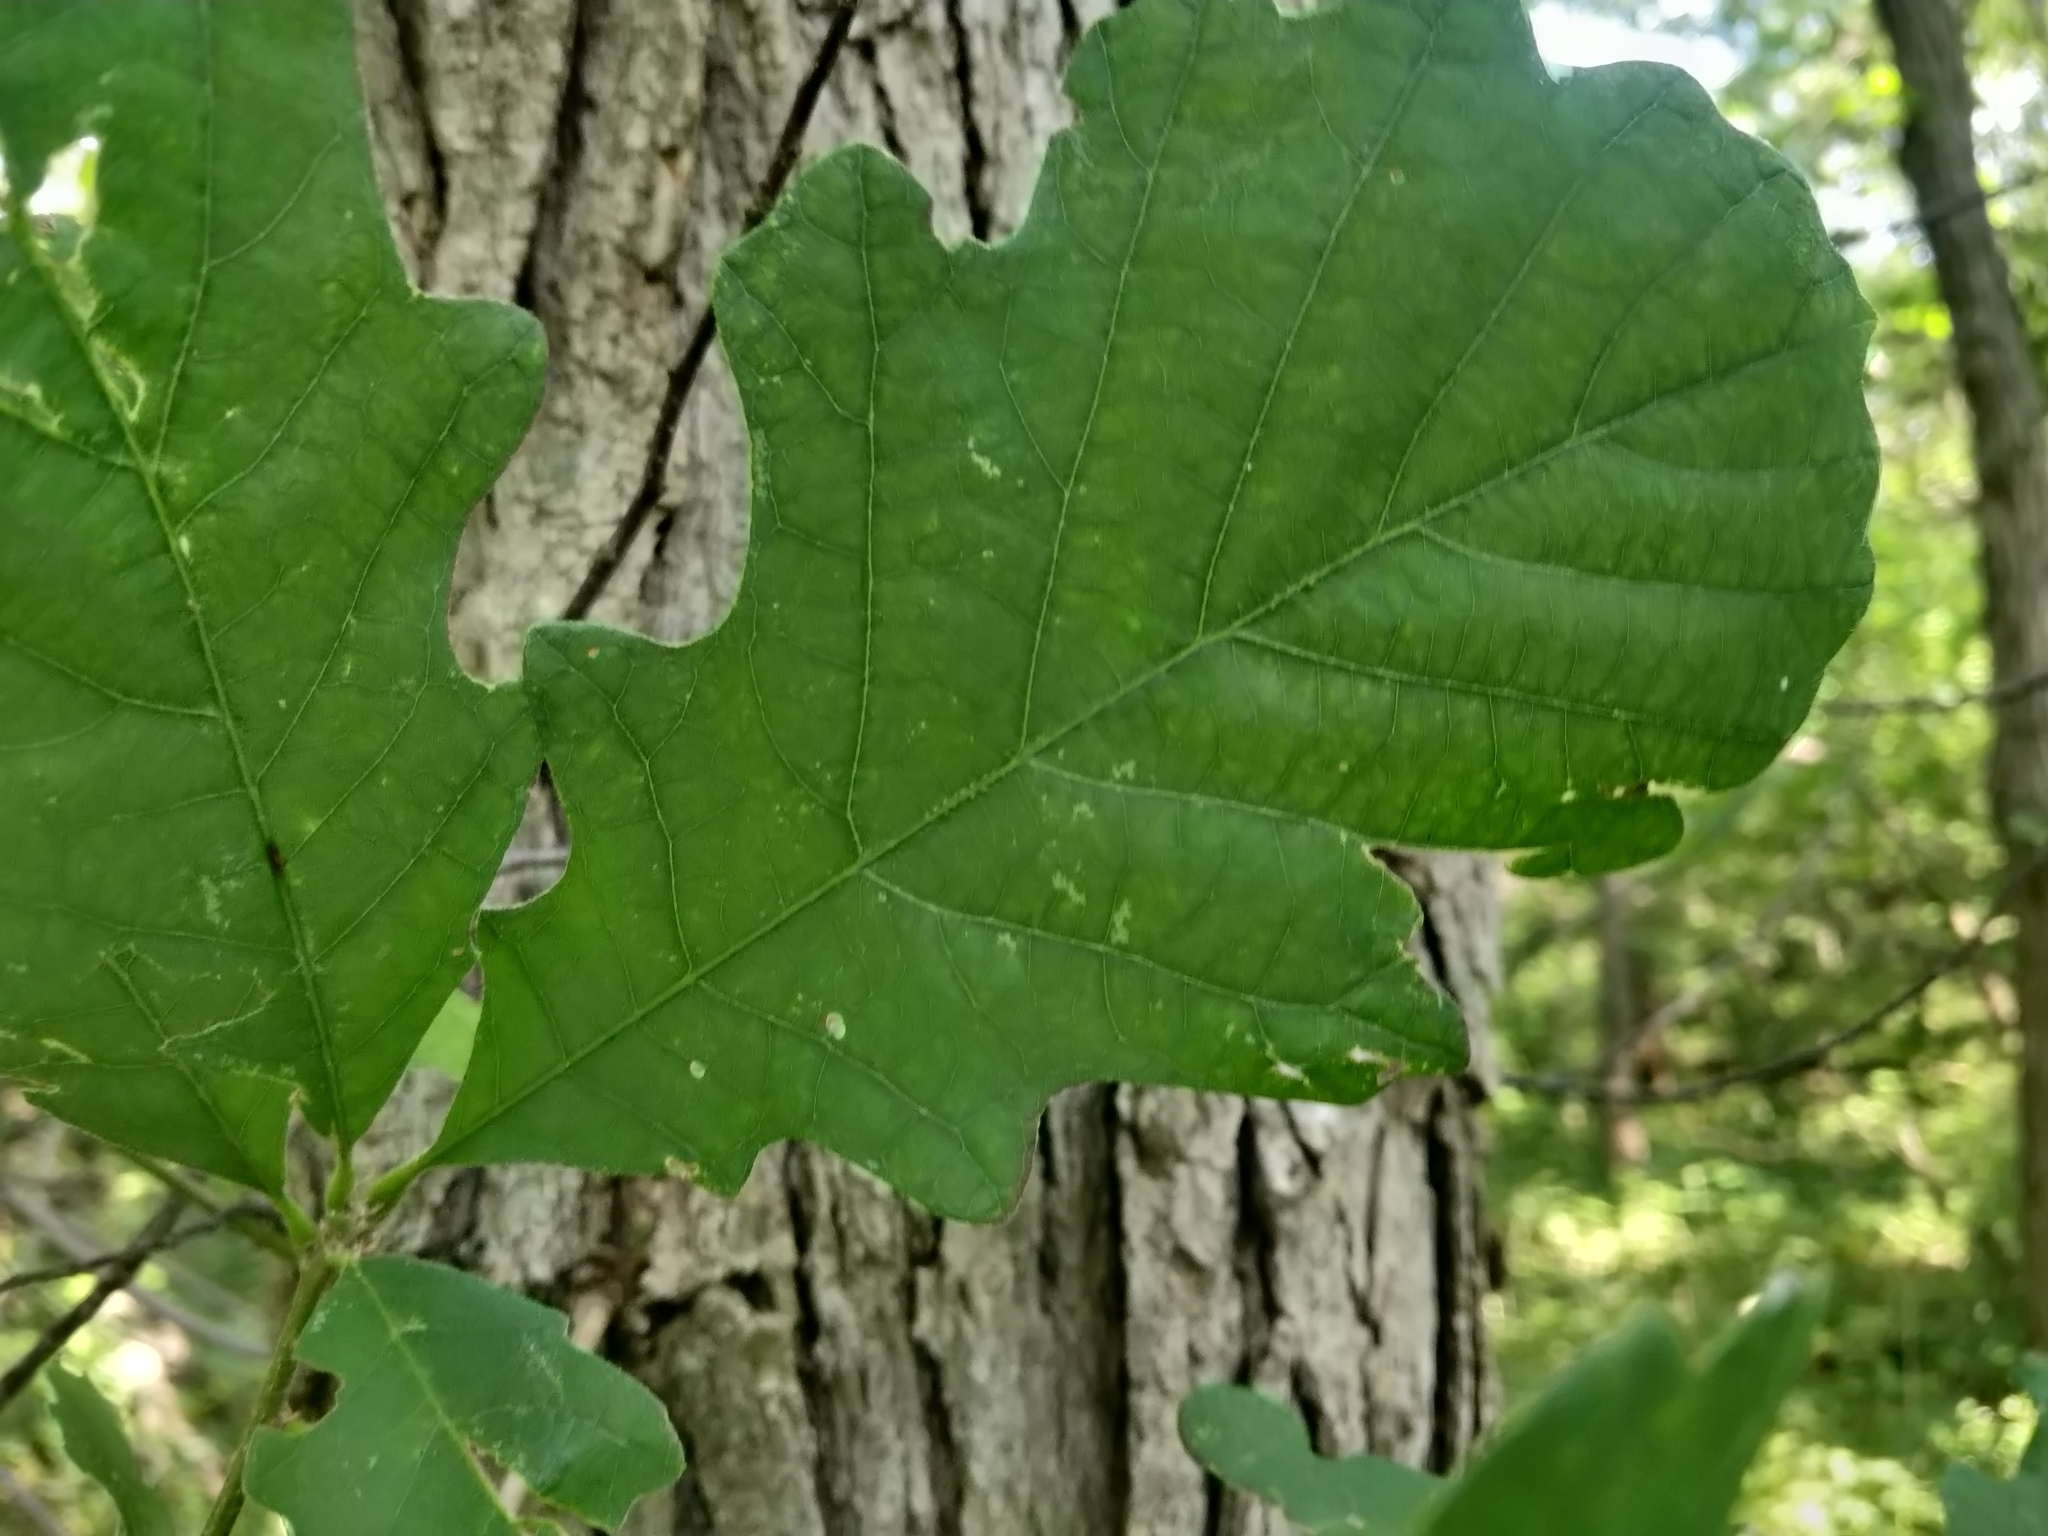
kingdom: Plantae
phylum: Tracheophyta
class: Magnoliopsida
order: Fagales
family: Fagaceae
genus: Quercus
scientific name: Quercus macrocarpa
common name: Bur oak
